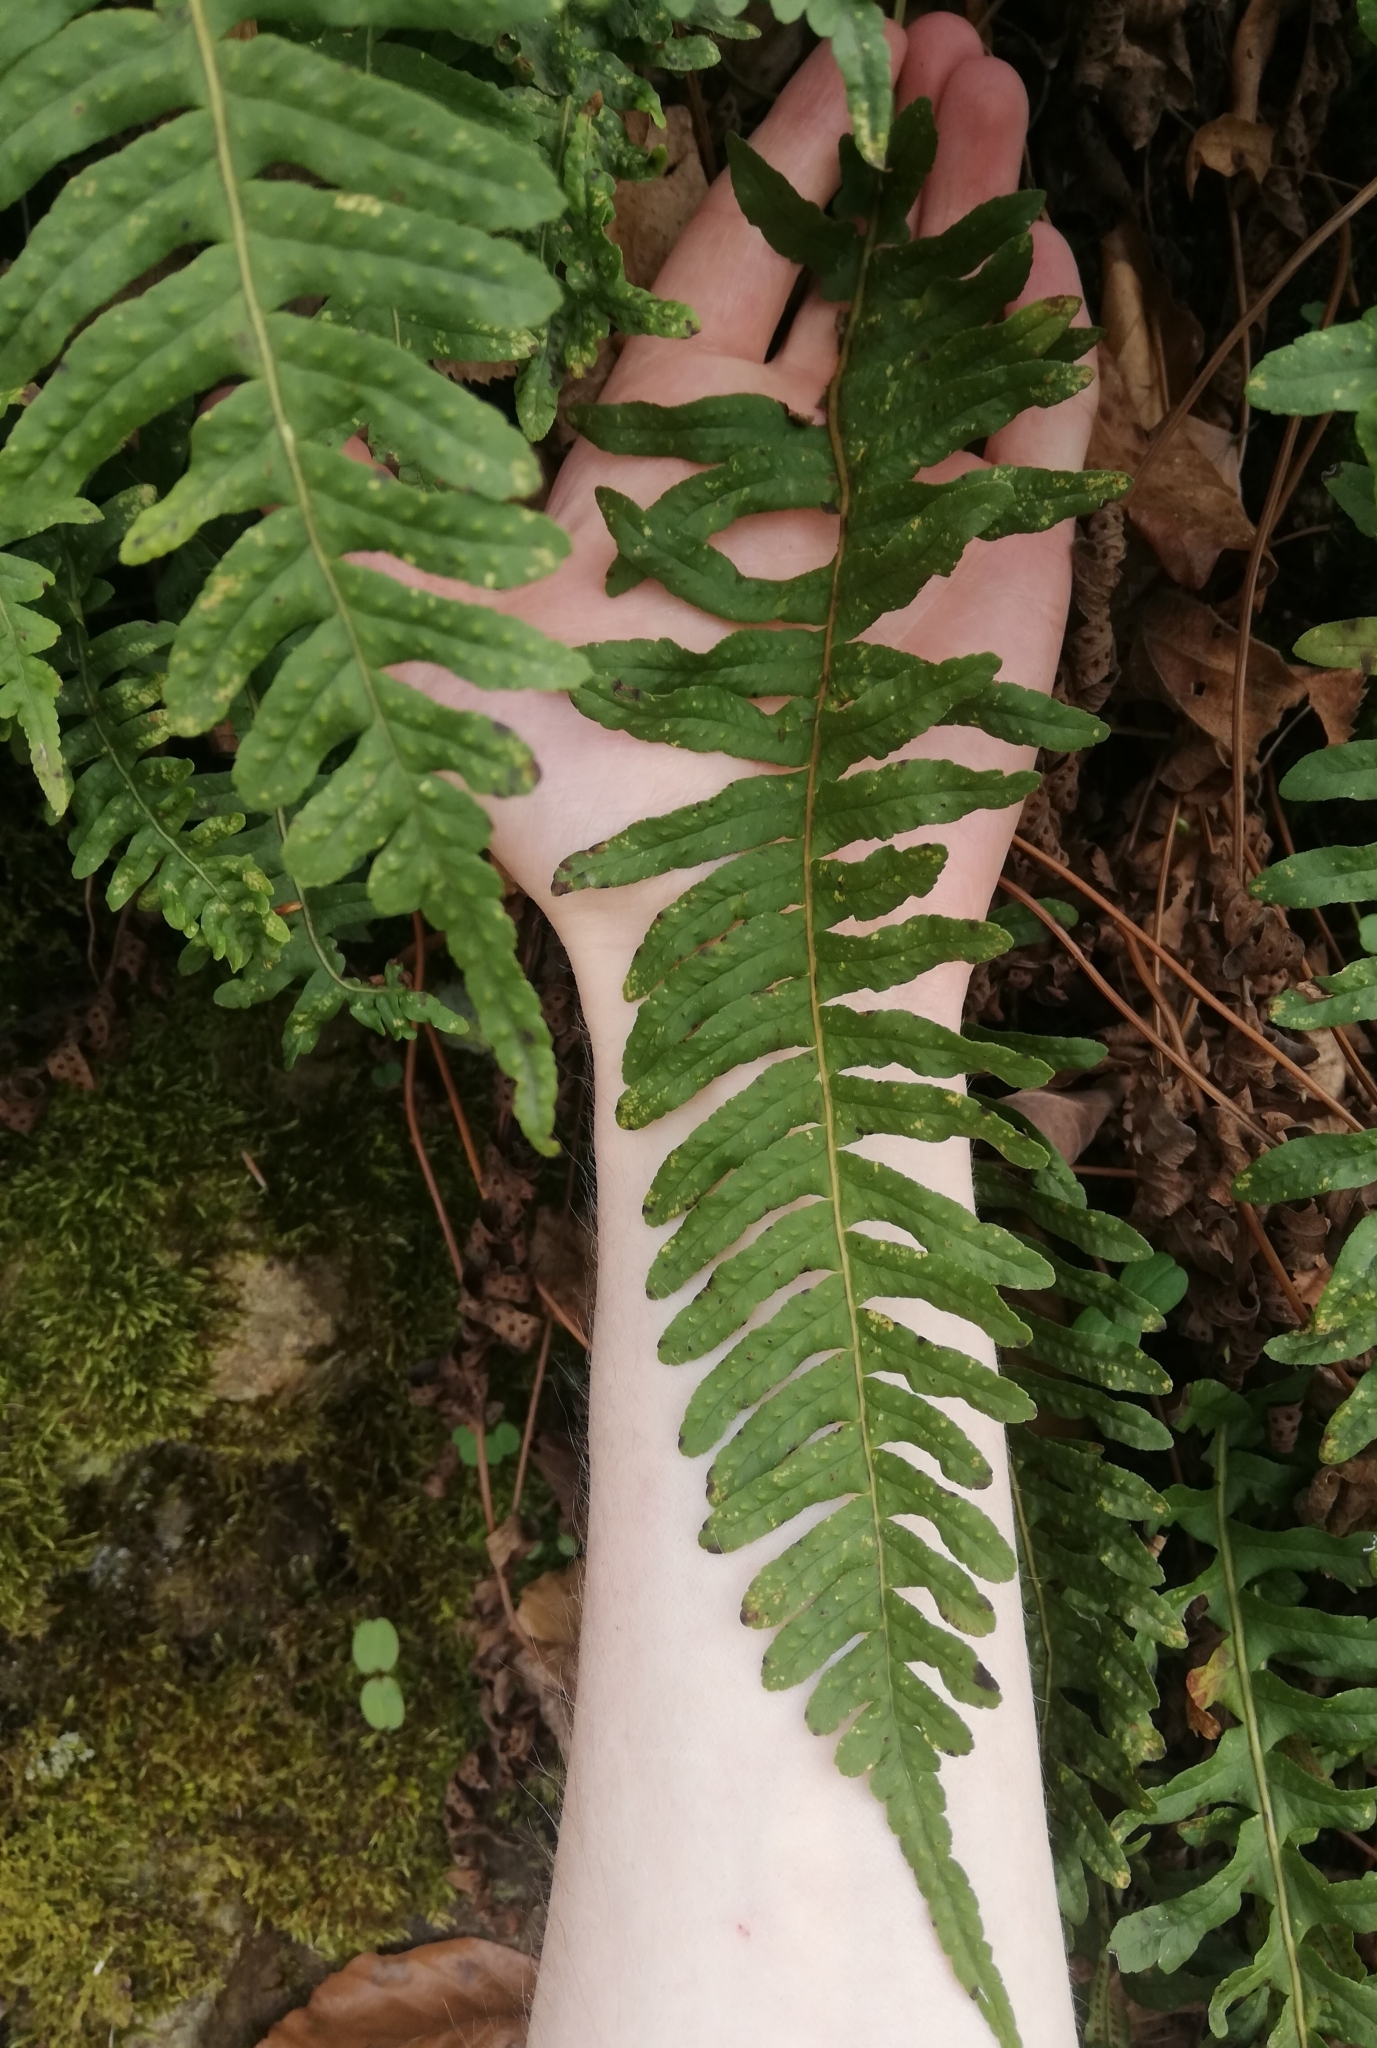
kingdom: Plantae
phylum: Tracheophyta
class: Polypodiopsida
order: Polypodiales
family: Polypodiaceae
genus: Polypodium
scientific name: Polypodium vulgare
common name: Common polypody
